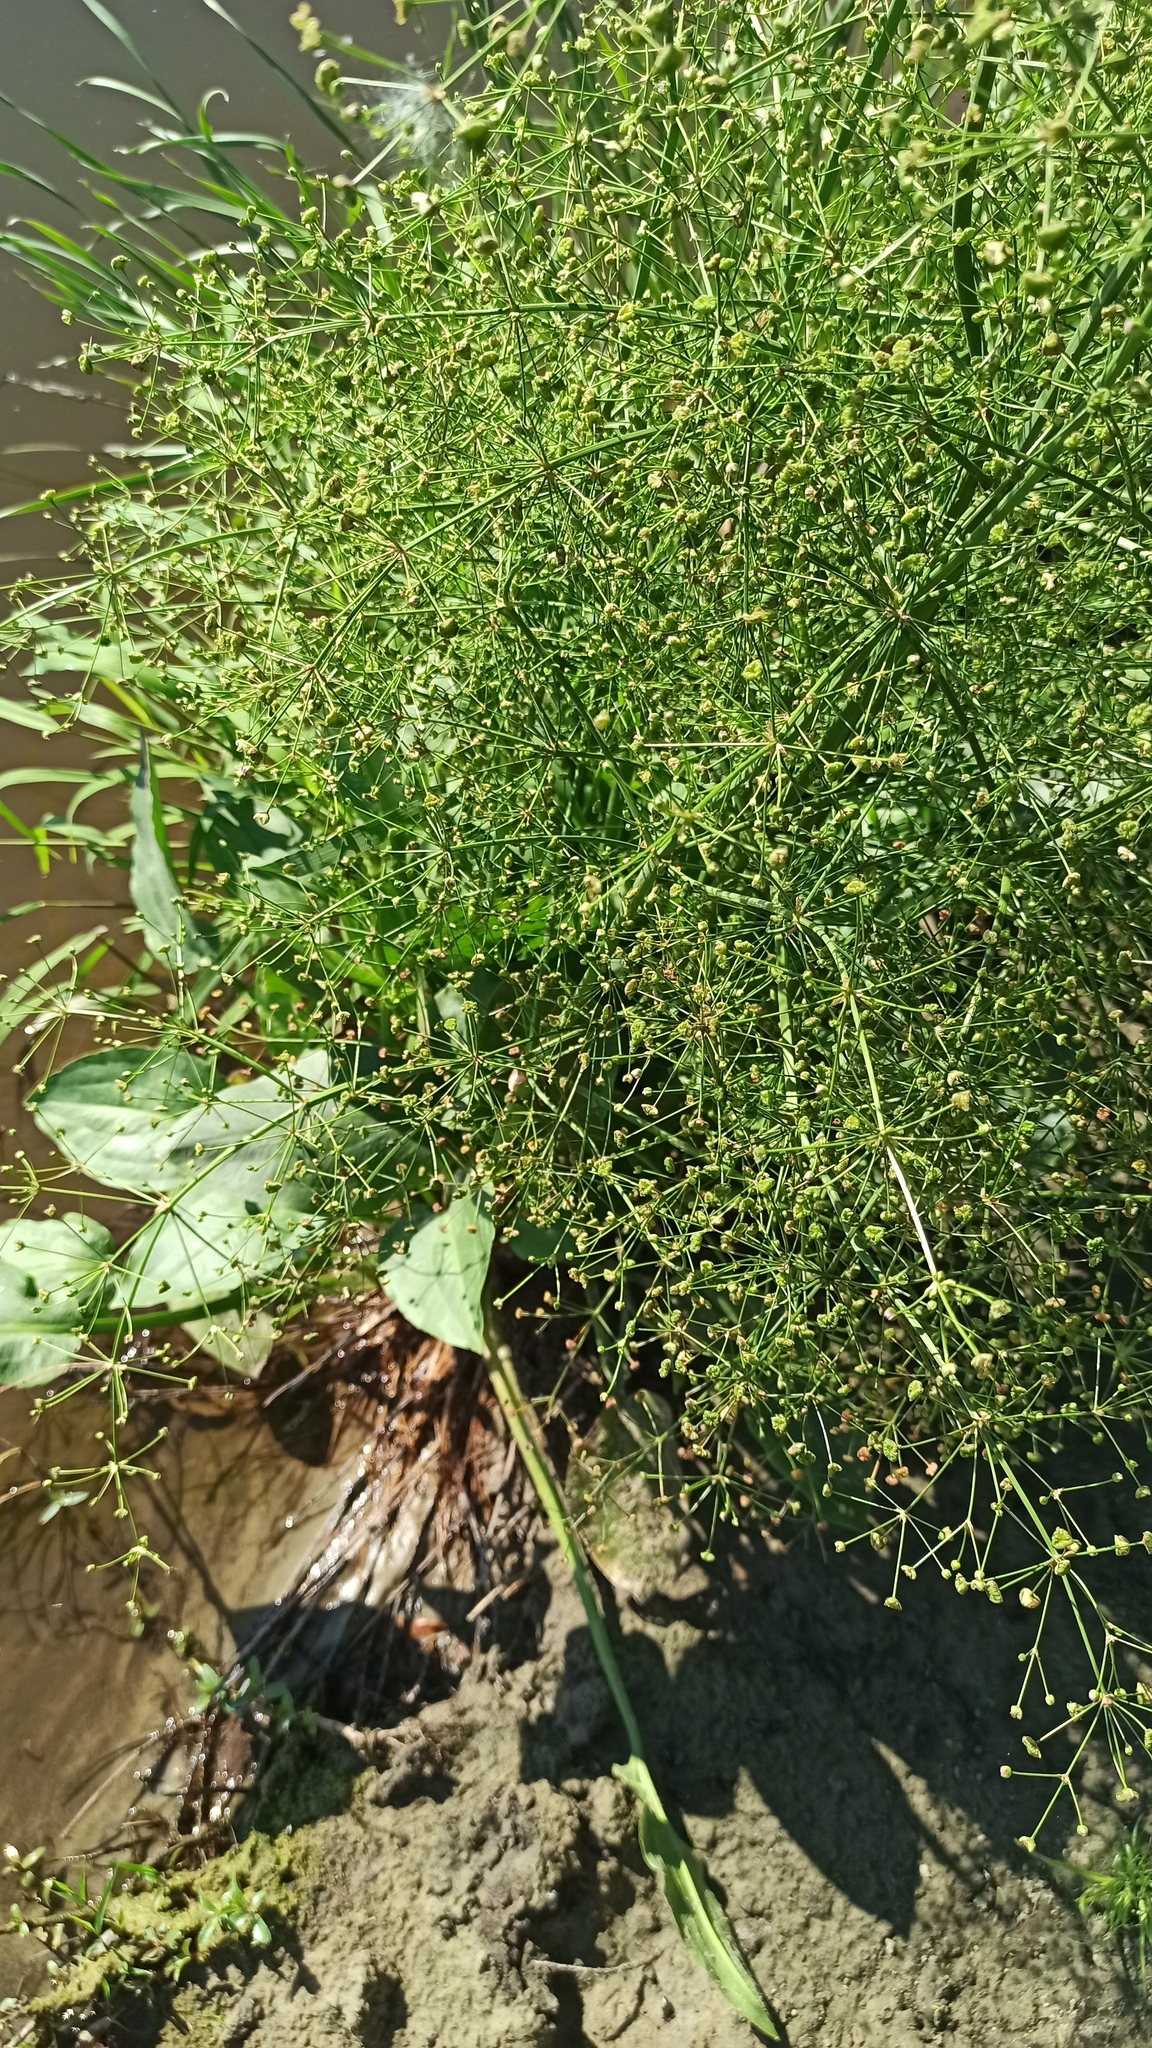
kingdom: Plantae
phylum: Tracheophyta
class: Liliopsida
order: Alismatales
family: Alismataceae
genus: Alisma
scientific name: Alisma plantago-aquatica
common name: Water-plantain
